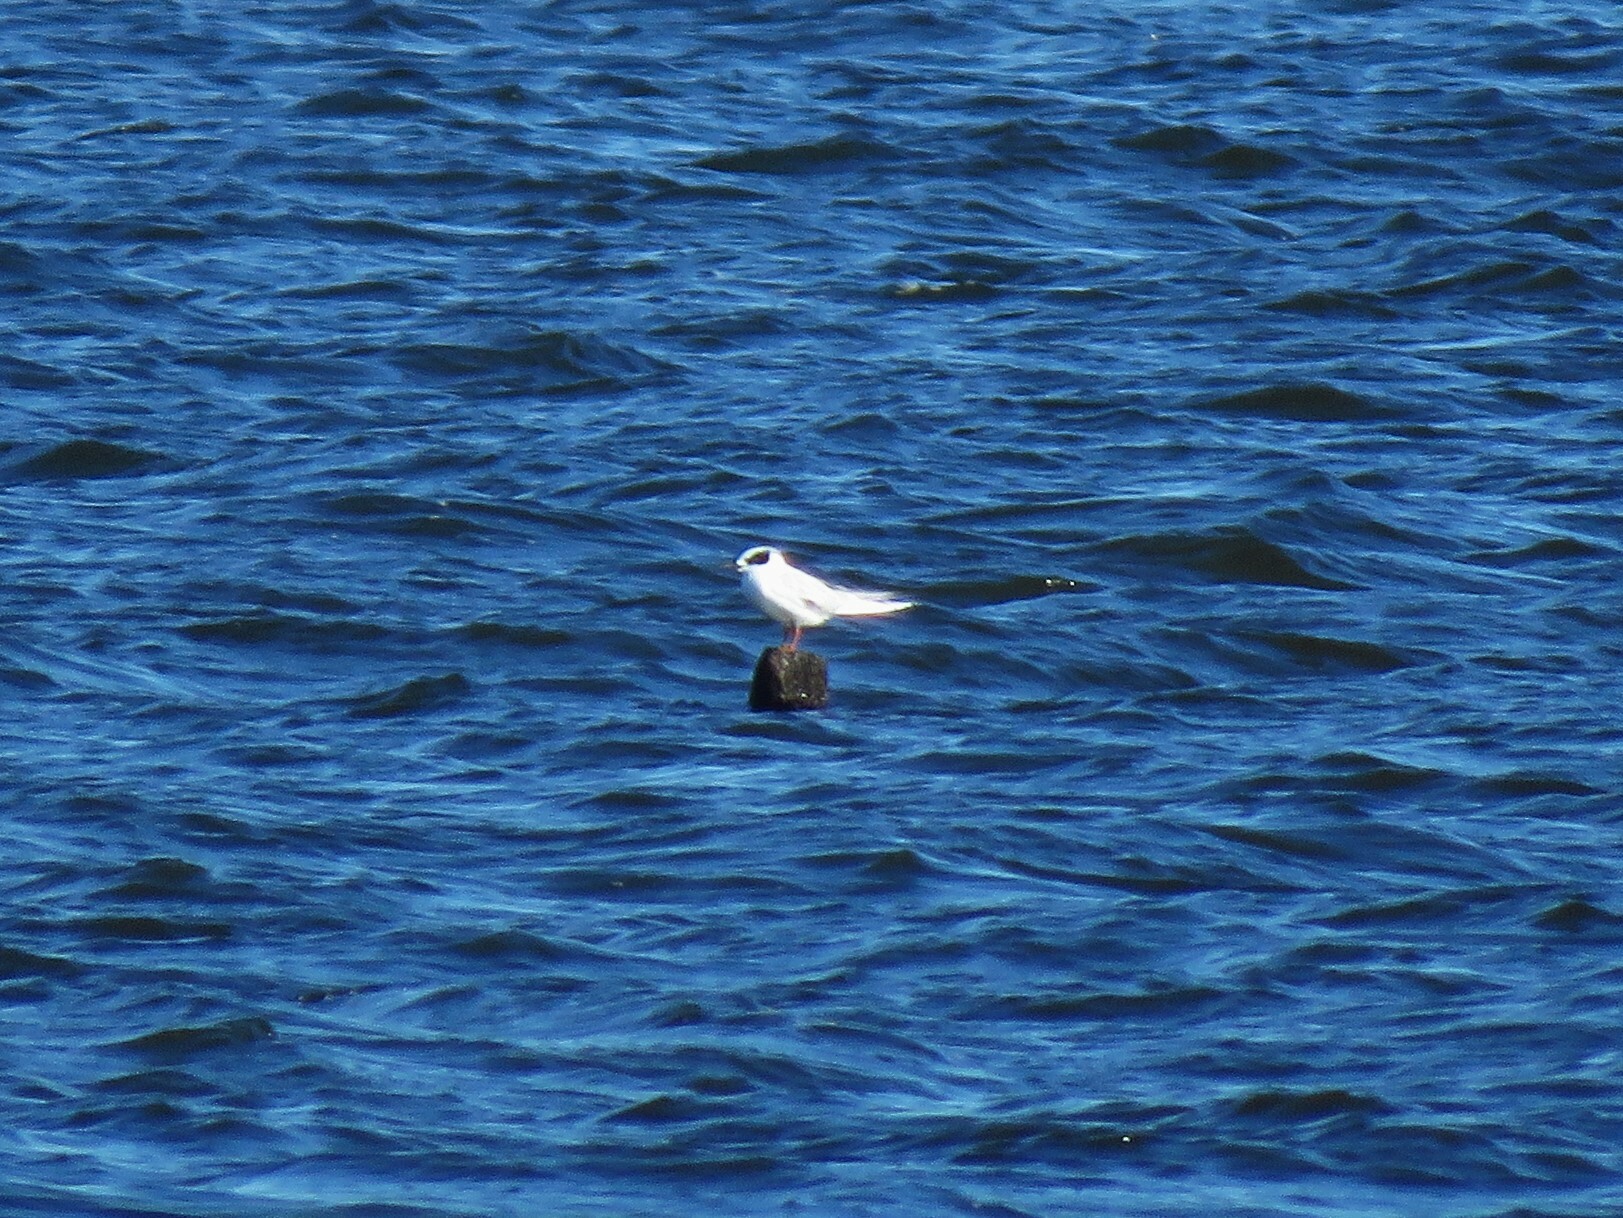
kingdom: Animalia
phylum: Chordata
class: Aves
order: Charadriiformes
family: Laridae
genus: Sterna
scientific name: Sterna forsteri
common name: Forster's tern
